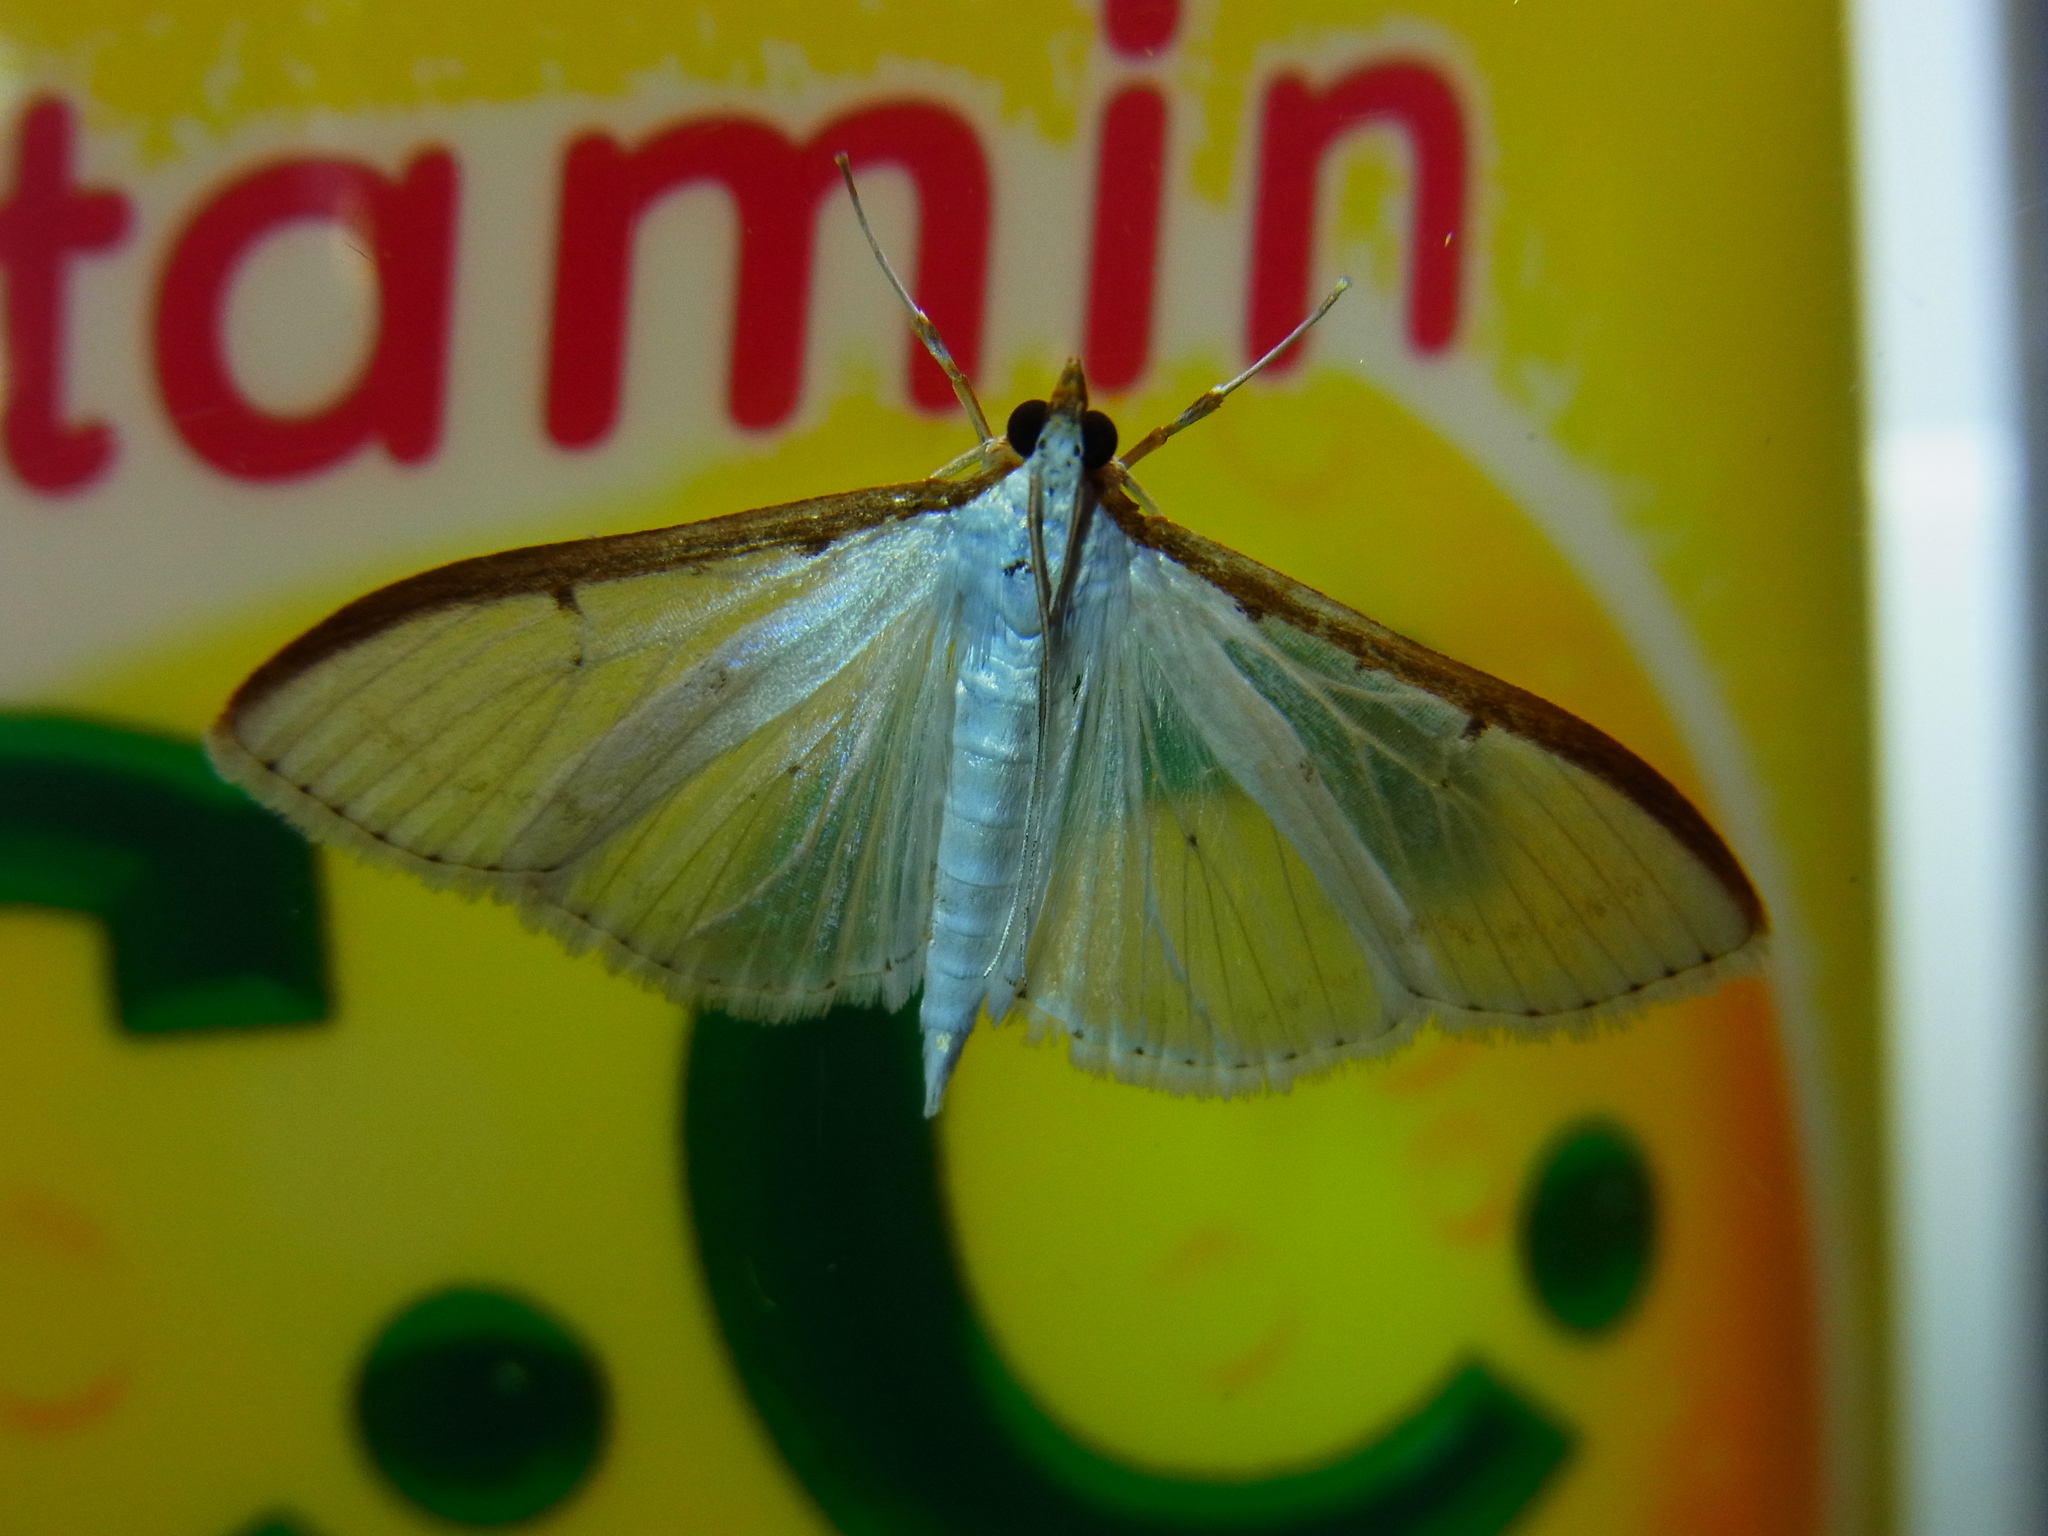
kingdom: Animalia
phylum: Arthropoda
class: Insecta
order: Lepidoptera
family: Crambidae
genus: Palpita
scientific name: Palpita nigropunctalis
